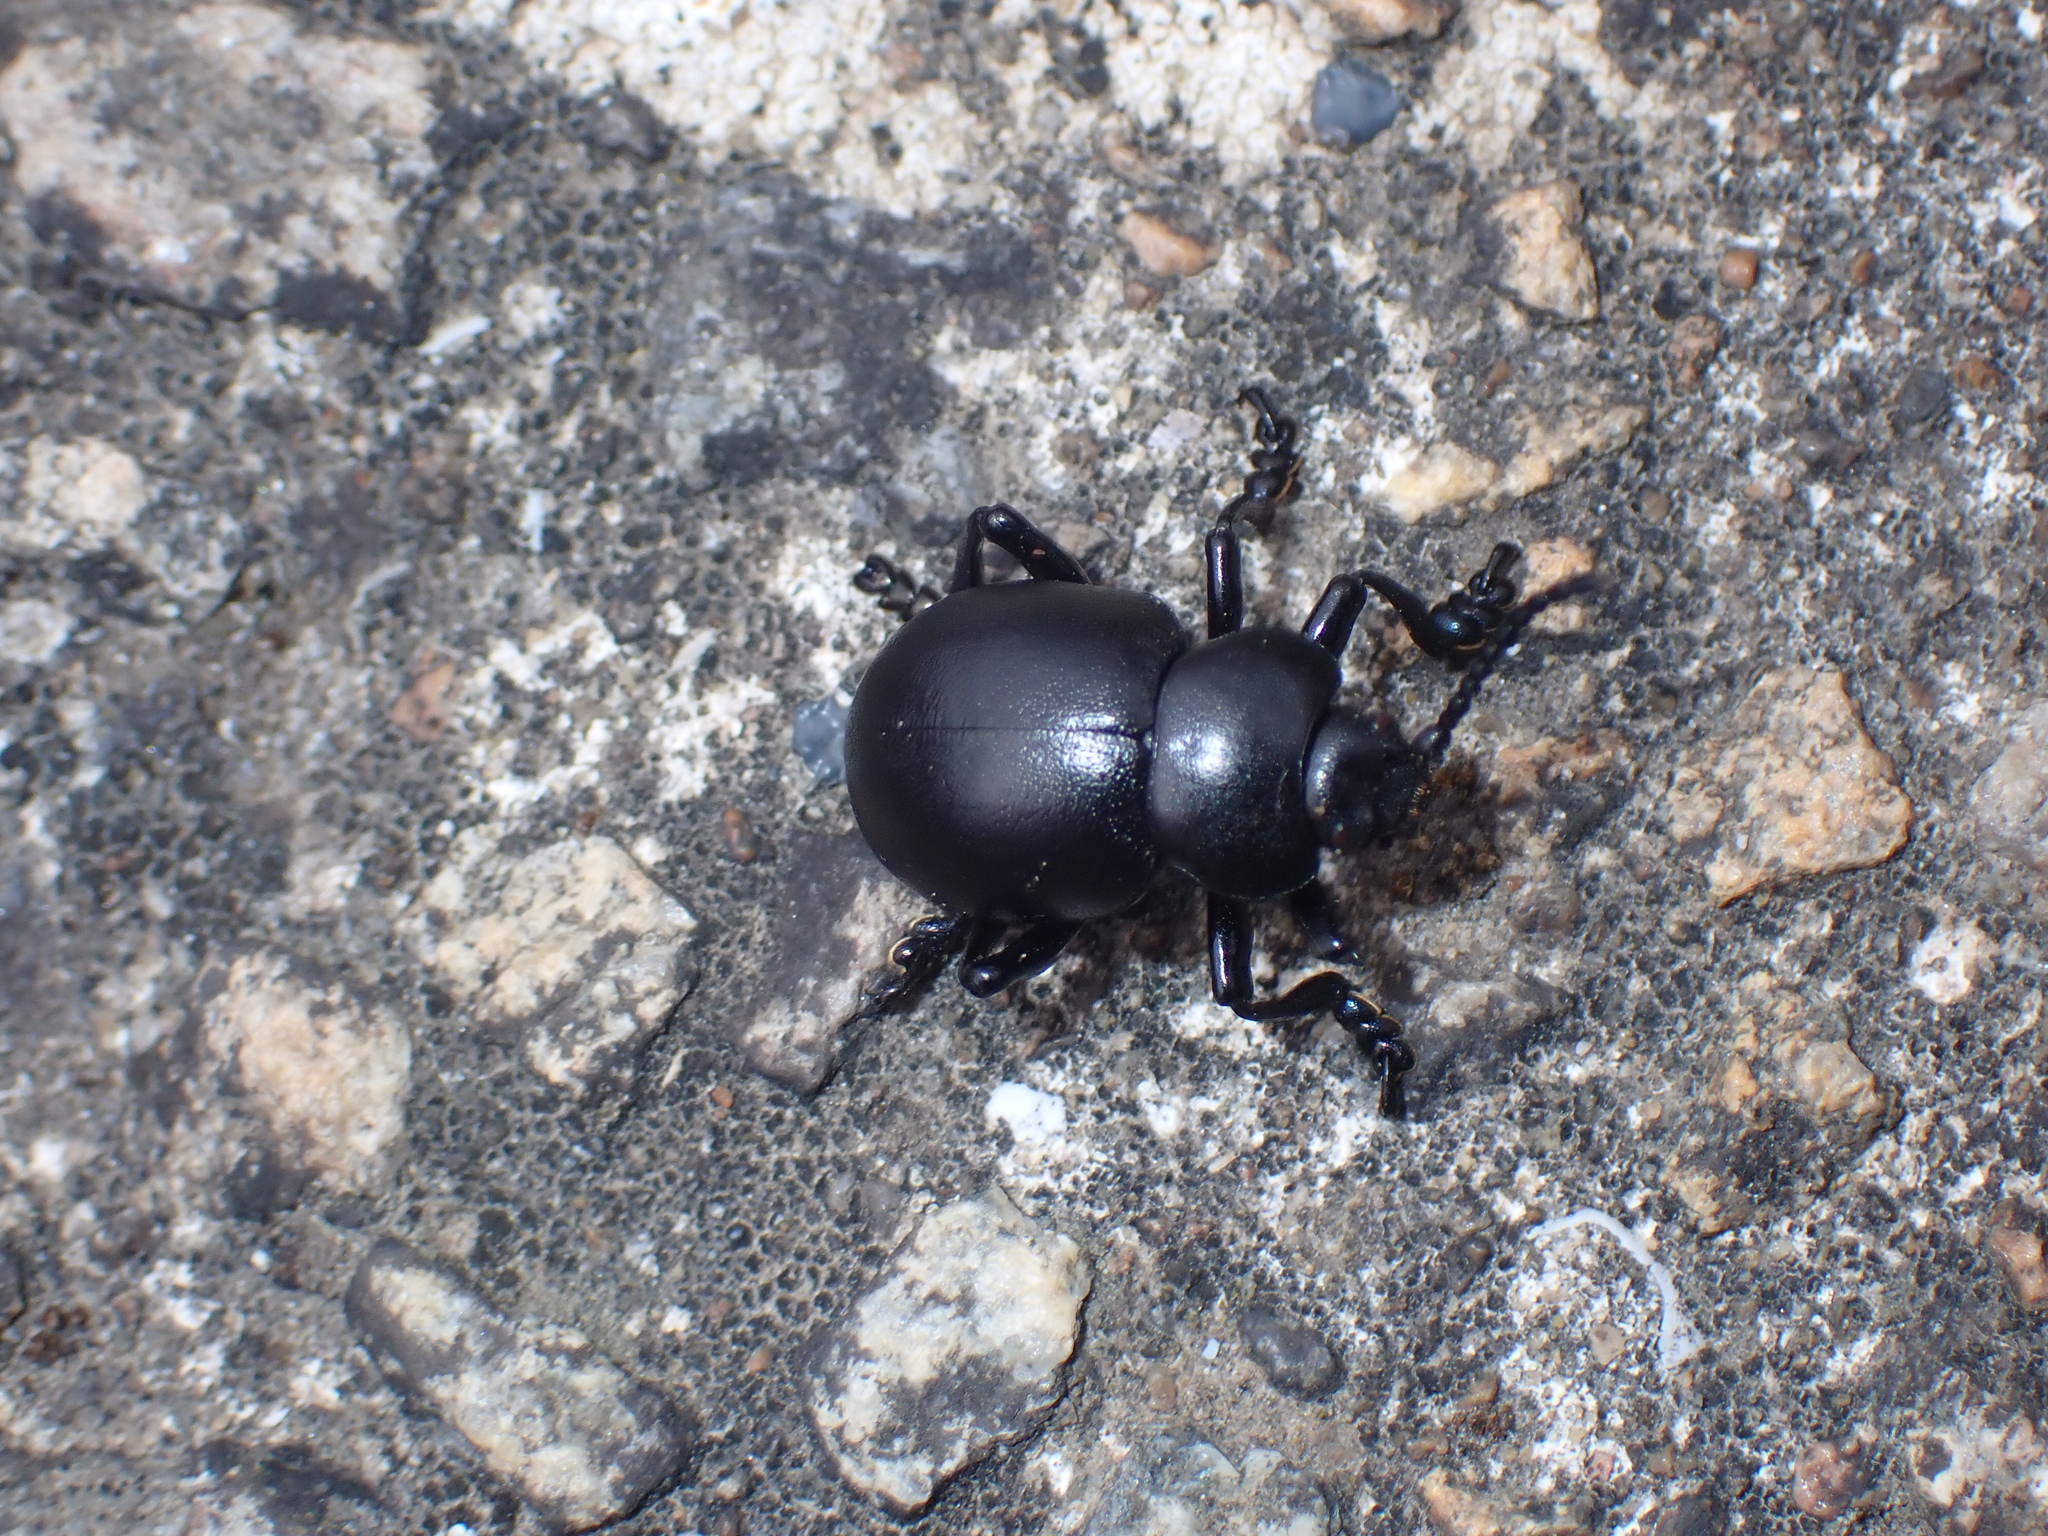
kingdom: Animalia
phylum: Arthropoda
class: Insecta
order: Coleoptera
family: Chrysomelidae
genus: Timarcha
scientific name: Timarcha tenebricosa
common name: Bloody-nosed beetle
